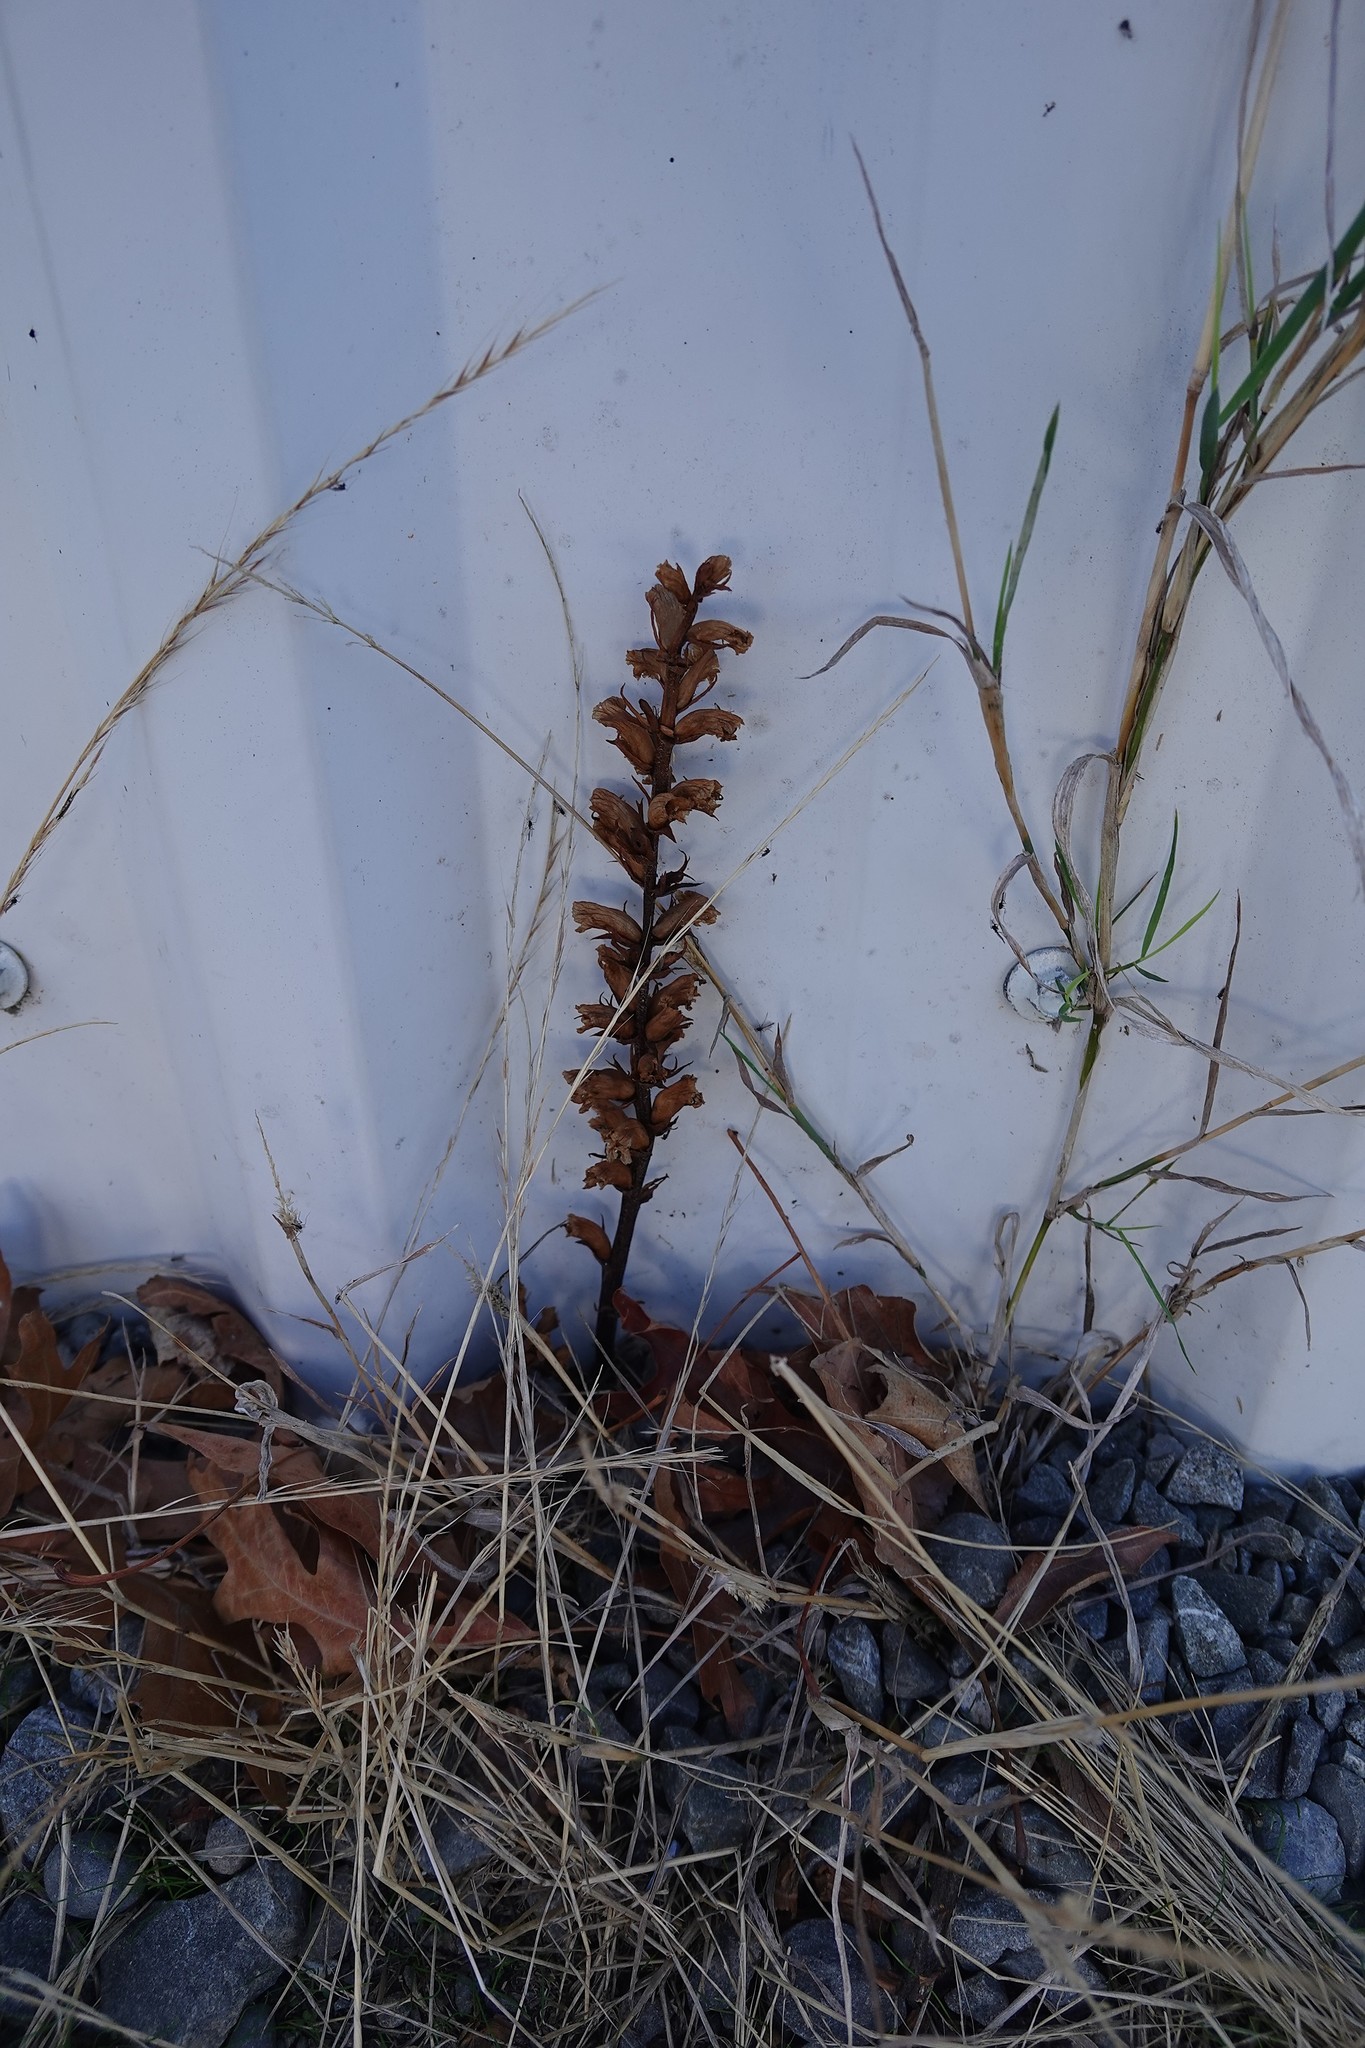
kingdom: Plantae
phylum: Tracheophyta
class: Magnoliopsida
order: Lamiales
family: Orobanchaceae
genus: Orobanche
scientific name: Orobanche minor
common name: Common broomrape
